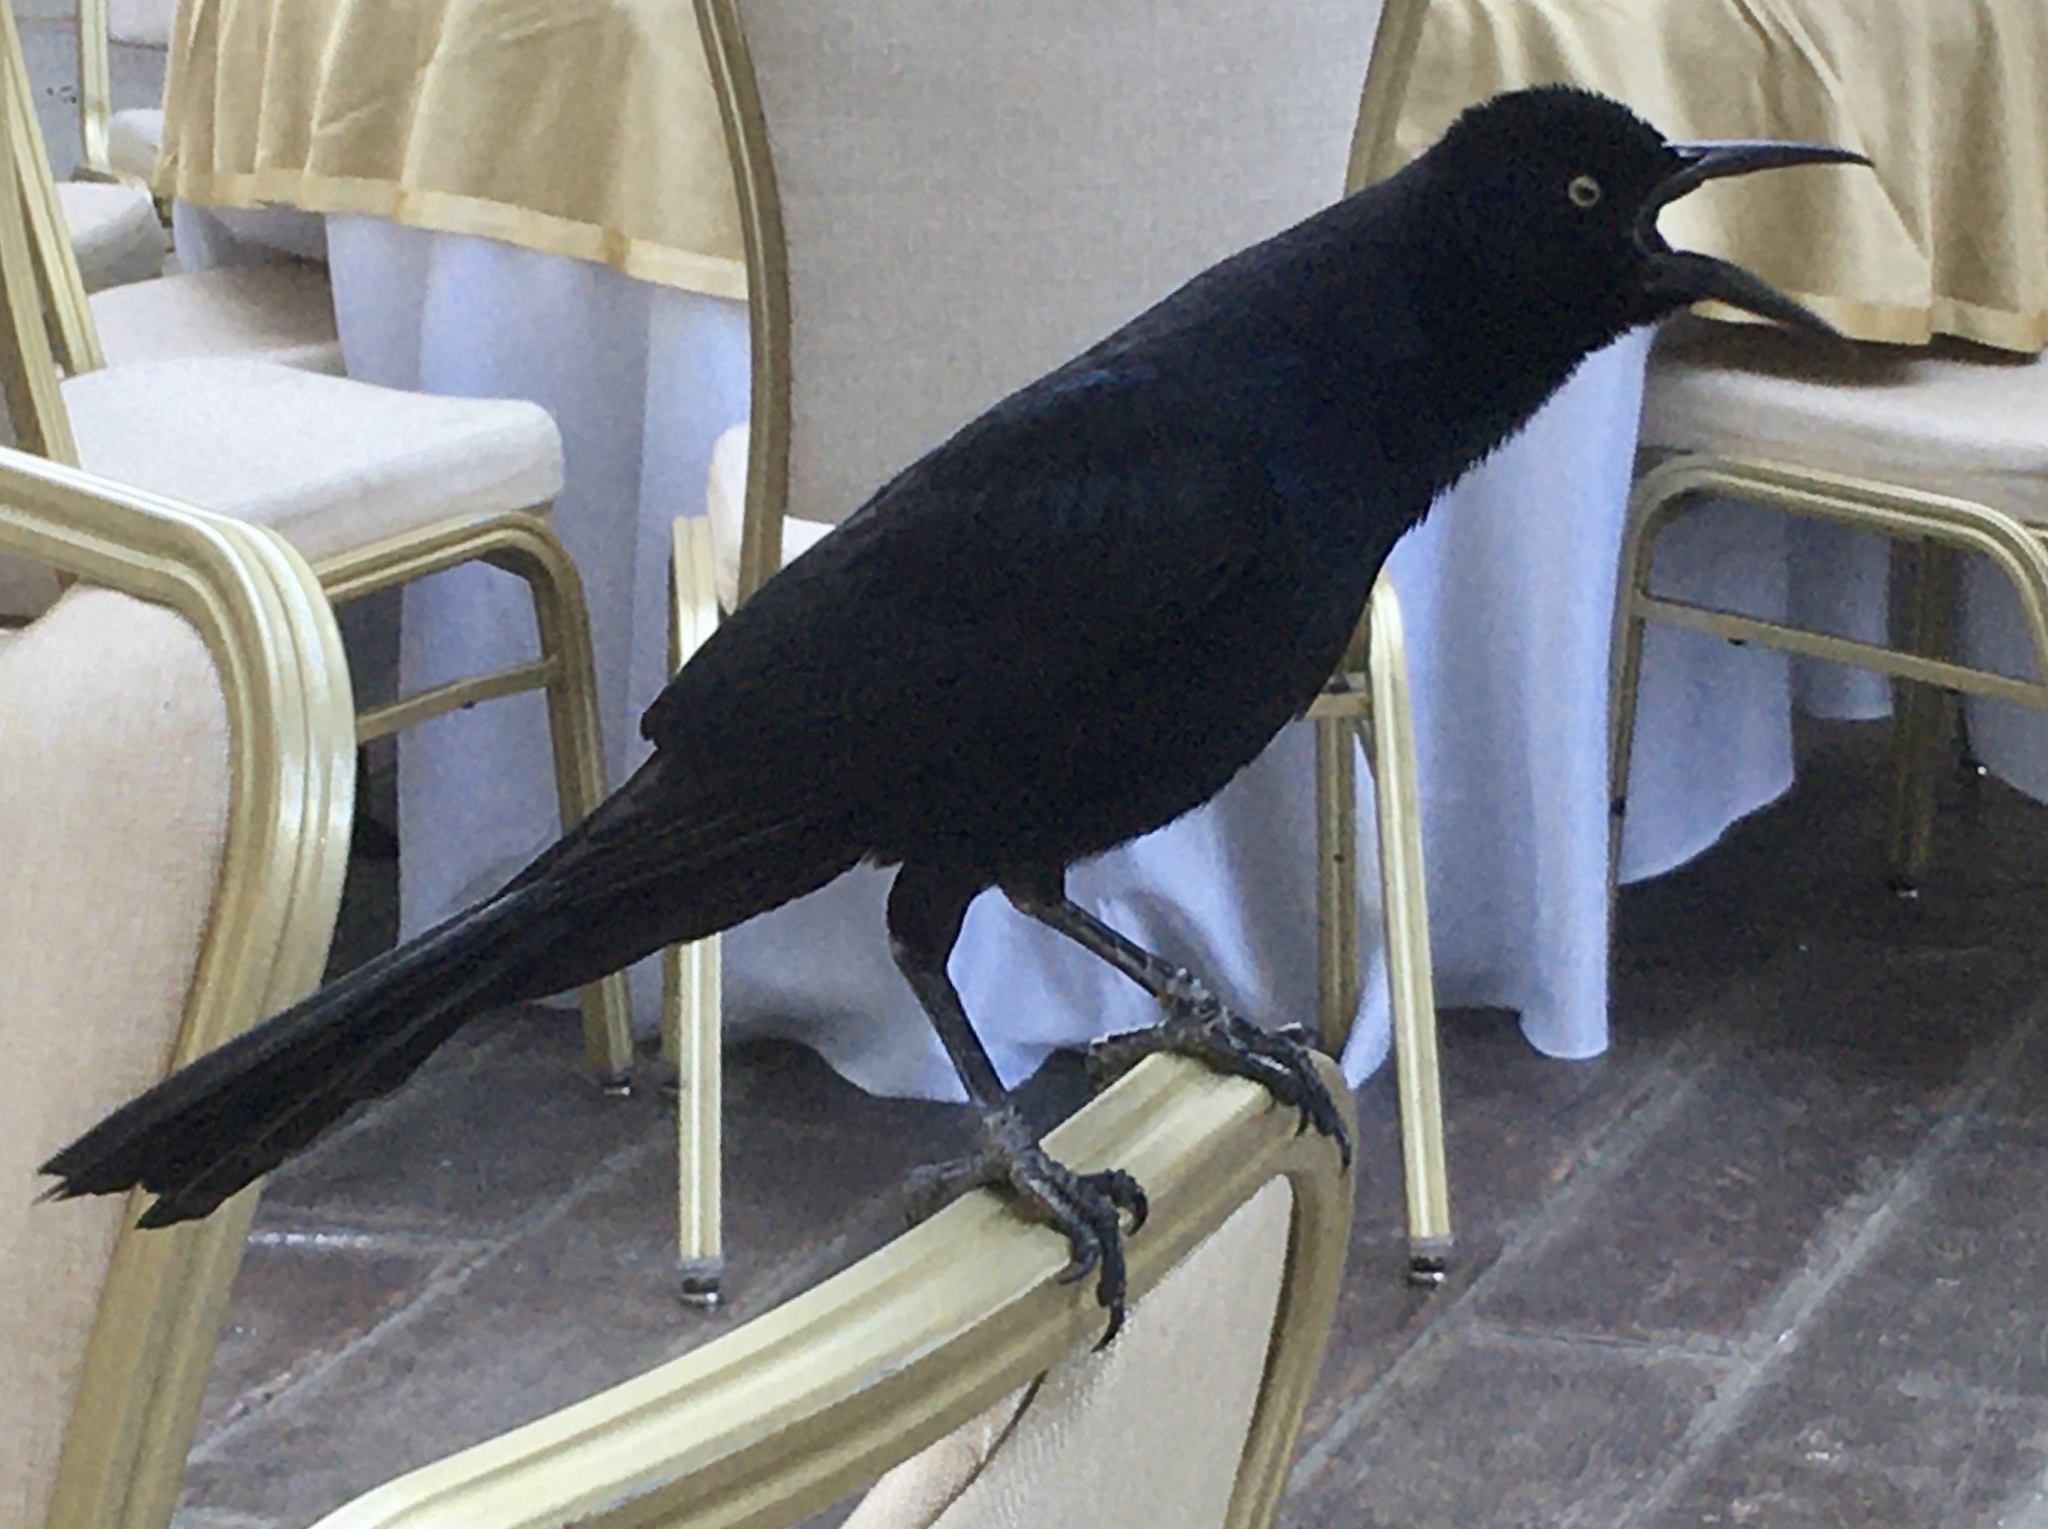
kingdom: Animalia
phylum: Chordata
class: Aves
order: Passeriformes
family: Icteridae
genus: Quiscalus
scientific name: Quiscalus mexicanus
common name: Great-tailed grackle
